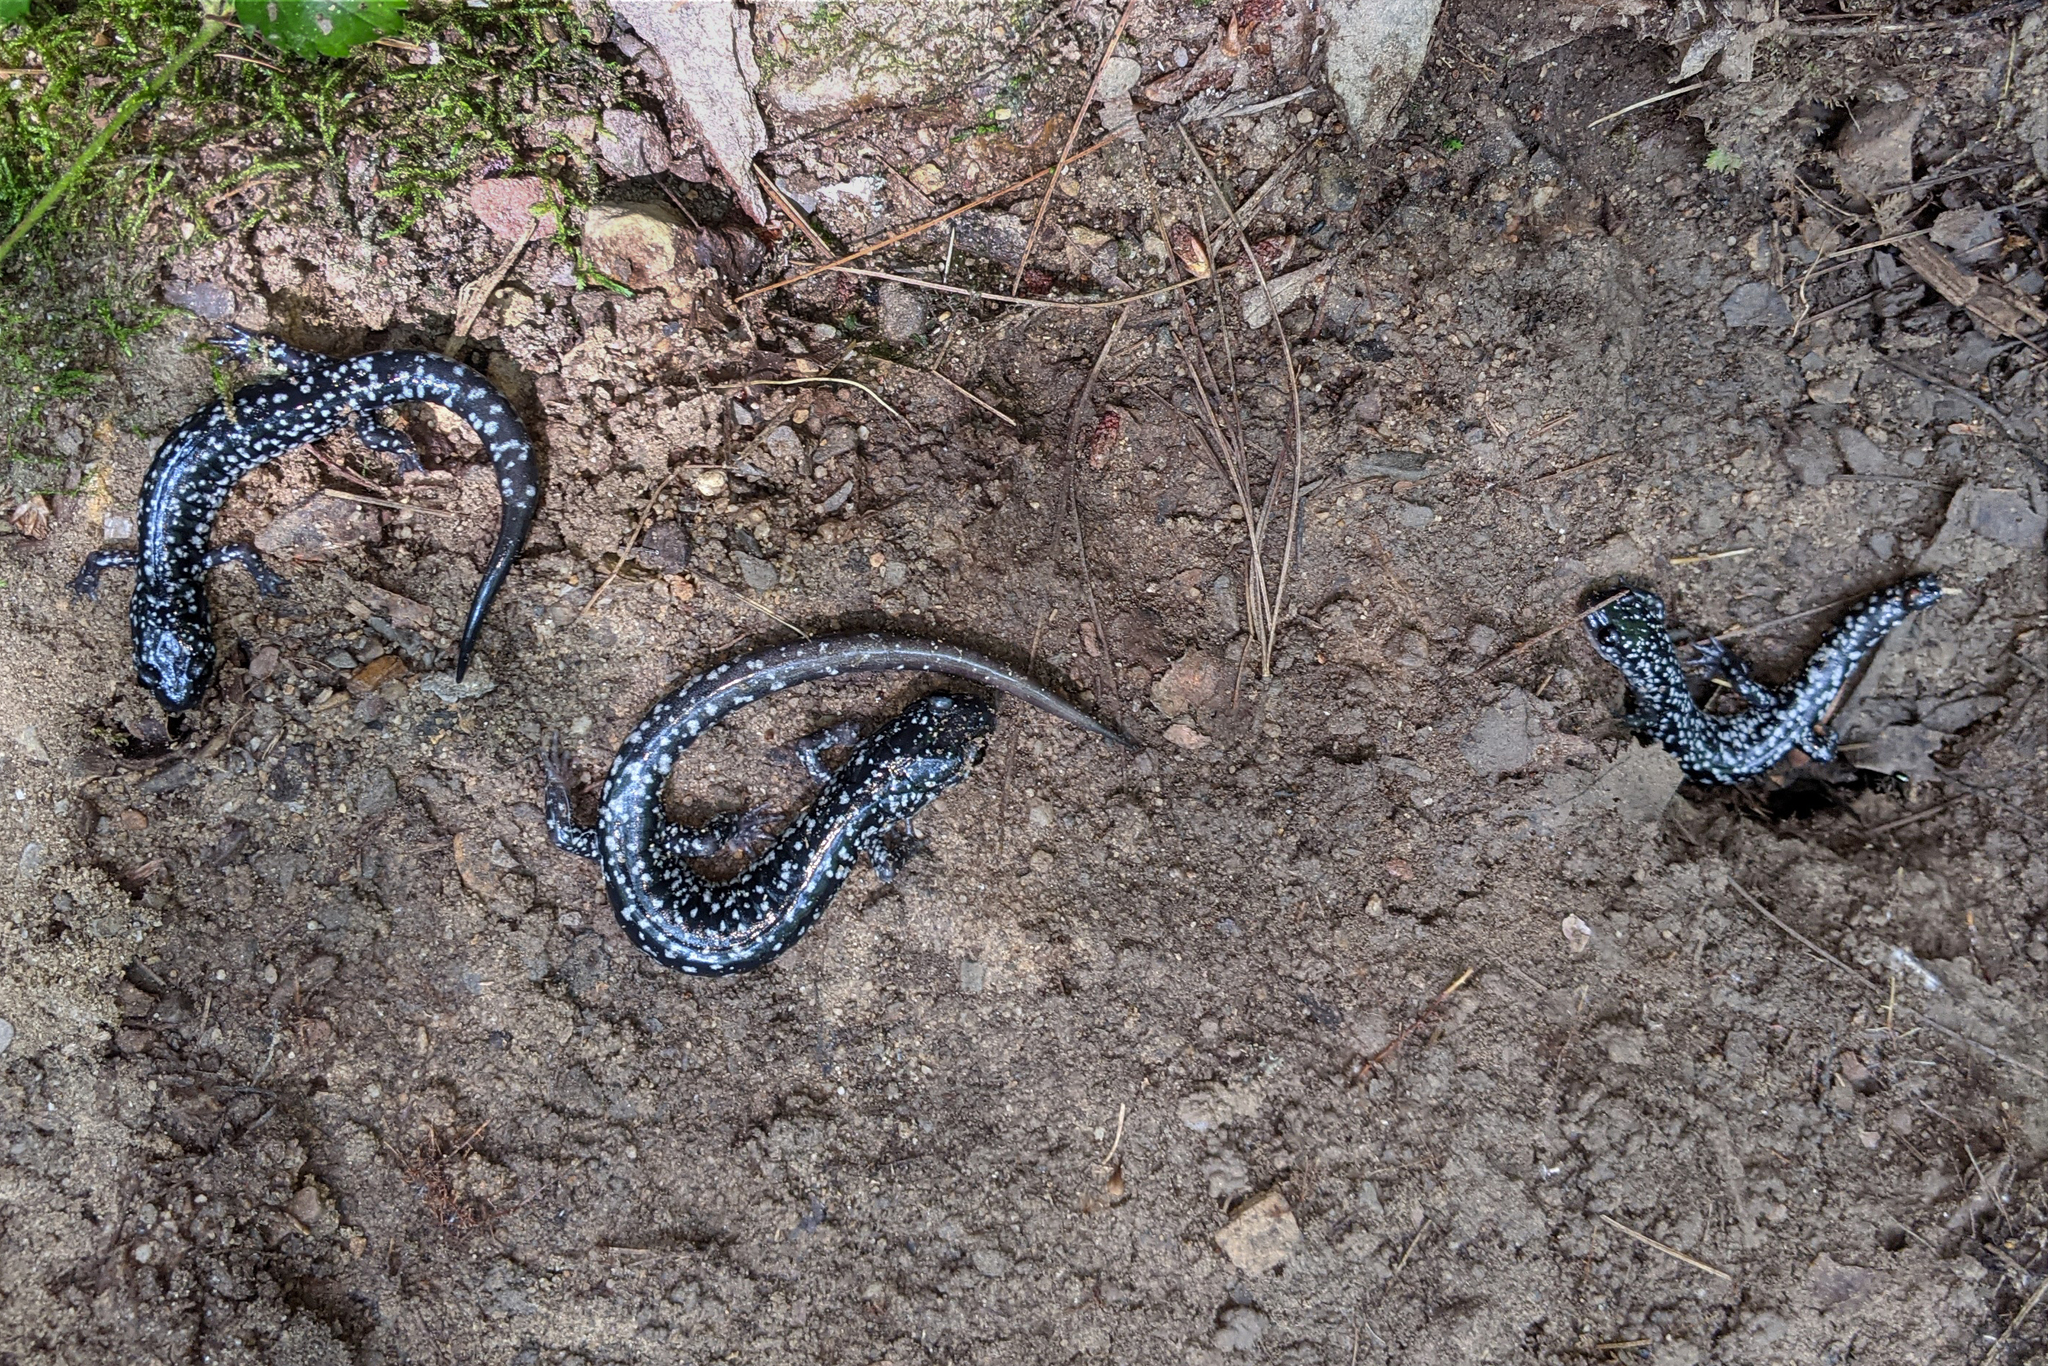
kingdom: Animalia
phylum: Chordata
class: Amphibia
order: Caudata
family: Plethodontidae
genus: Plethodon
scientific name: Plethodon cylindraceus
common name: White-spotted slimy salamander
